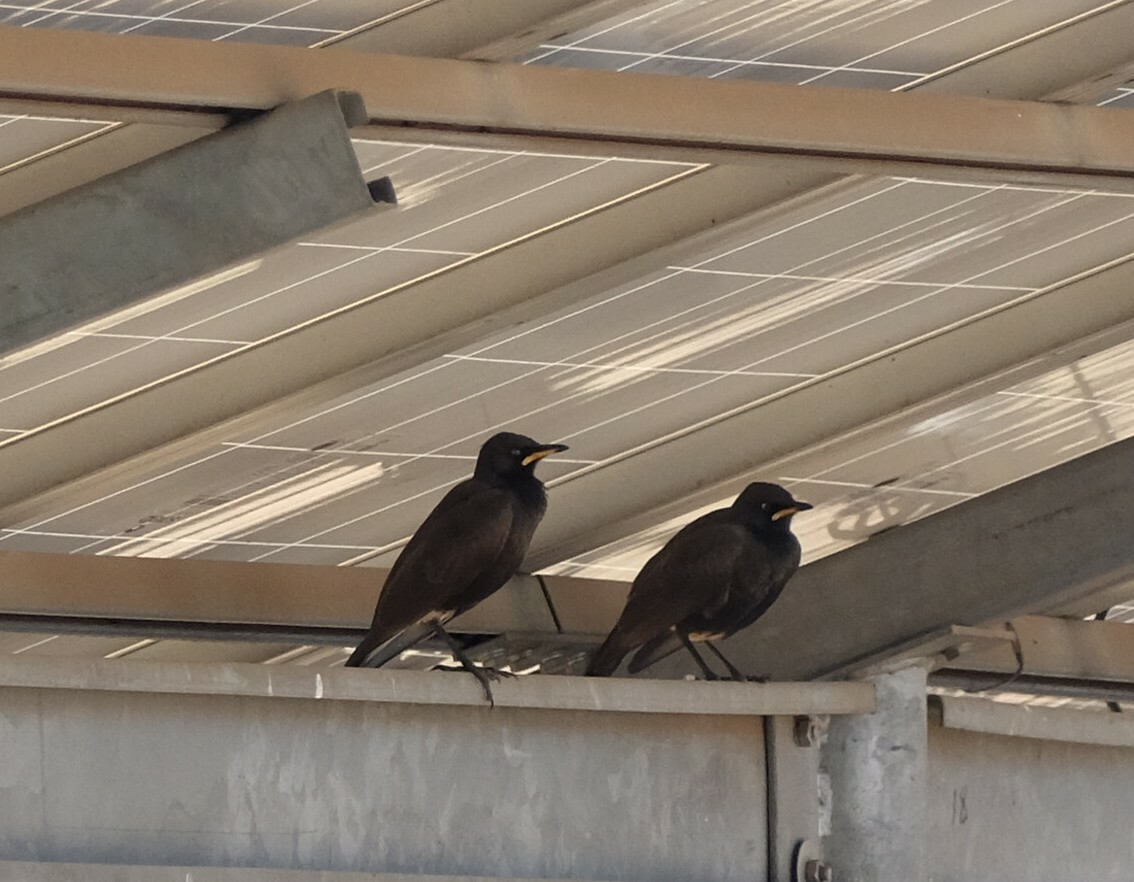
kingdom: Animalia
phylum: Chordata
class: Aves
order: Passeriformes
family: Sturnidae
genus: Lamprotornis
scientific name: Lamprotornis bicolor
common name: Pied starling
